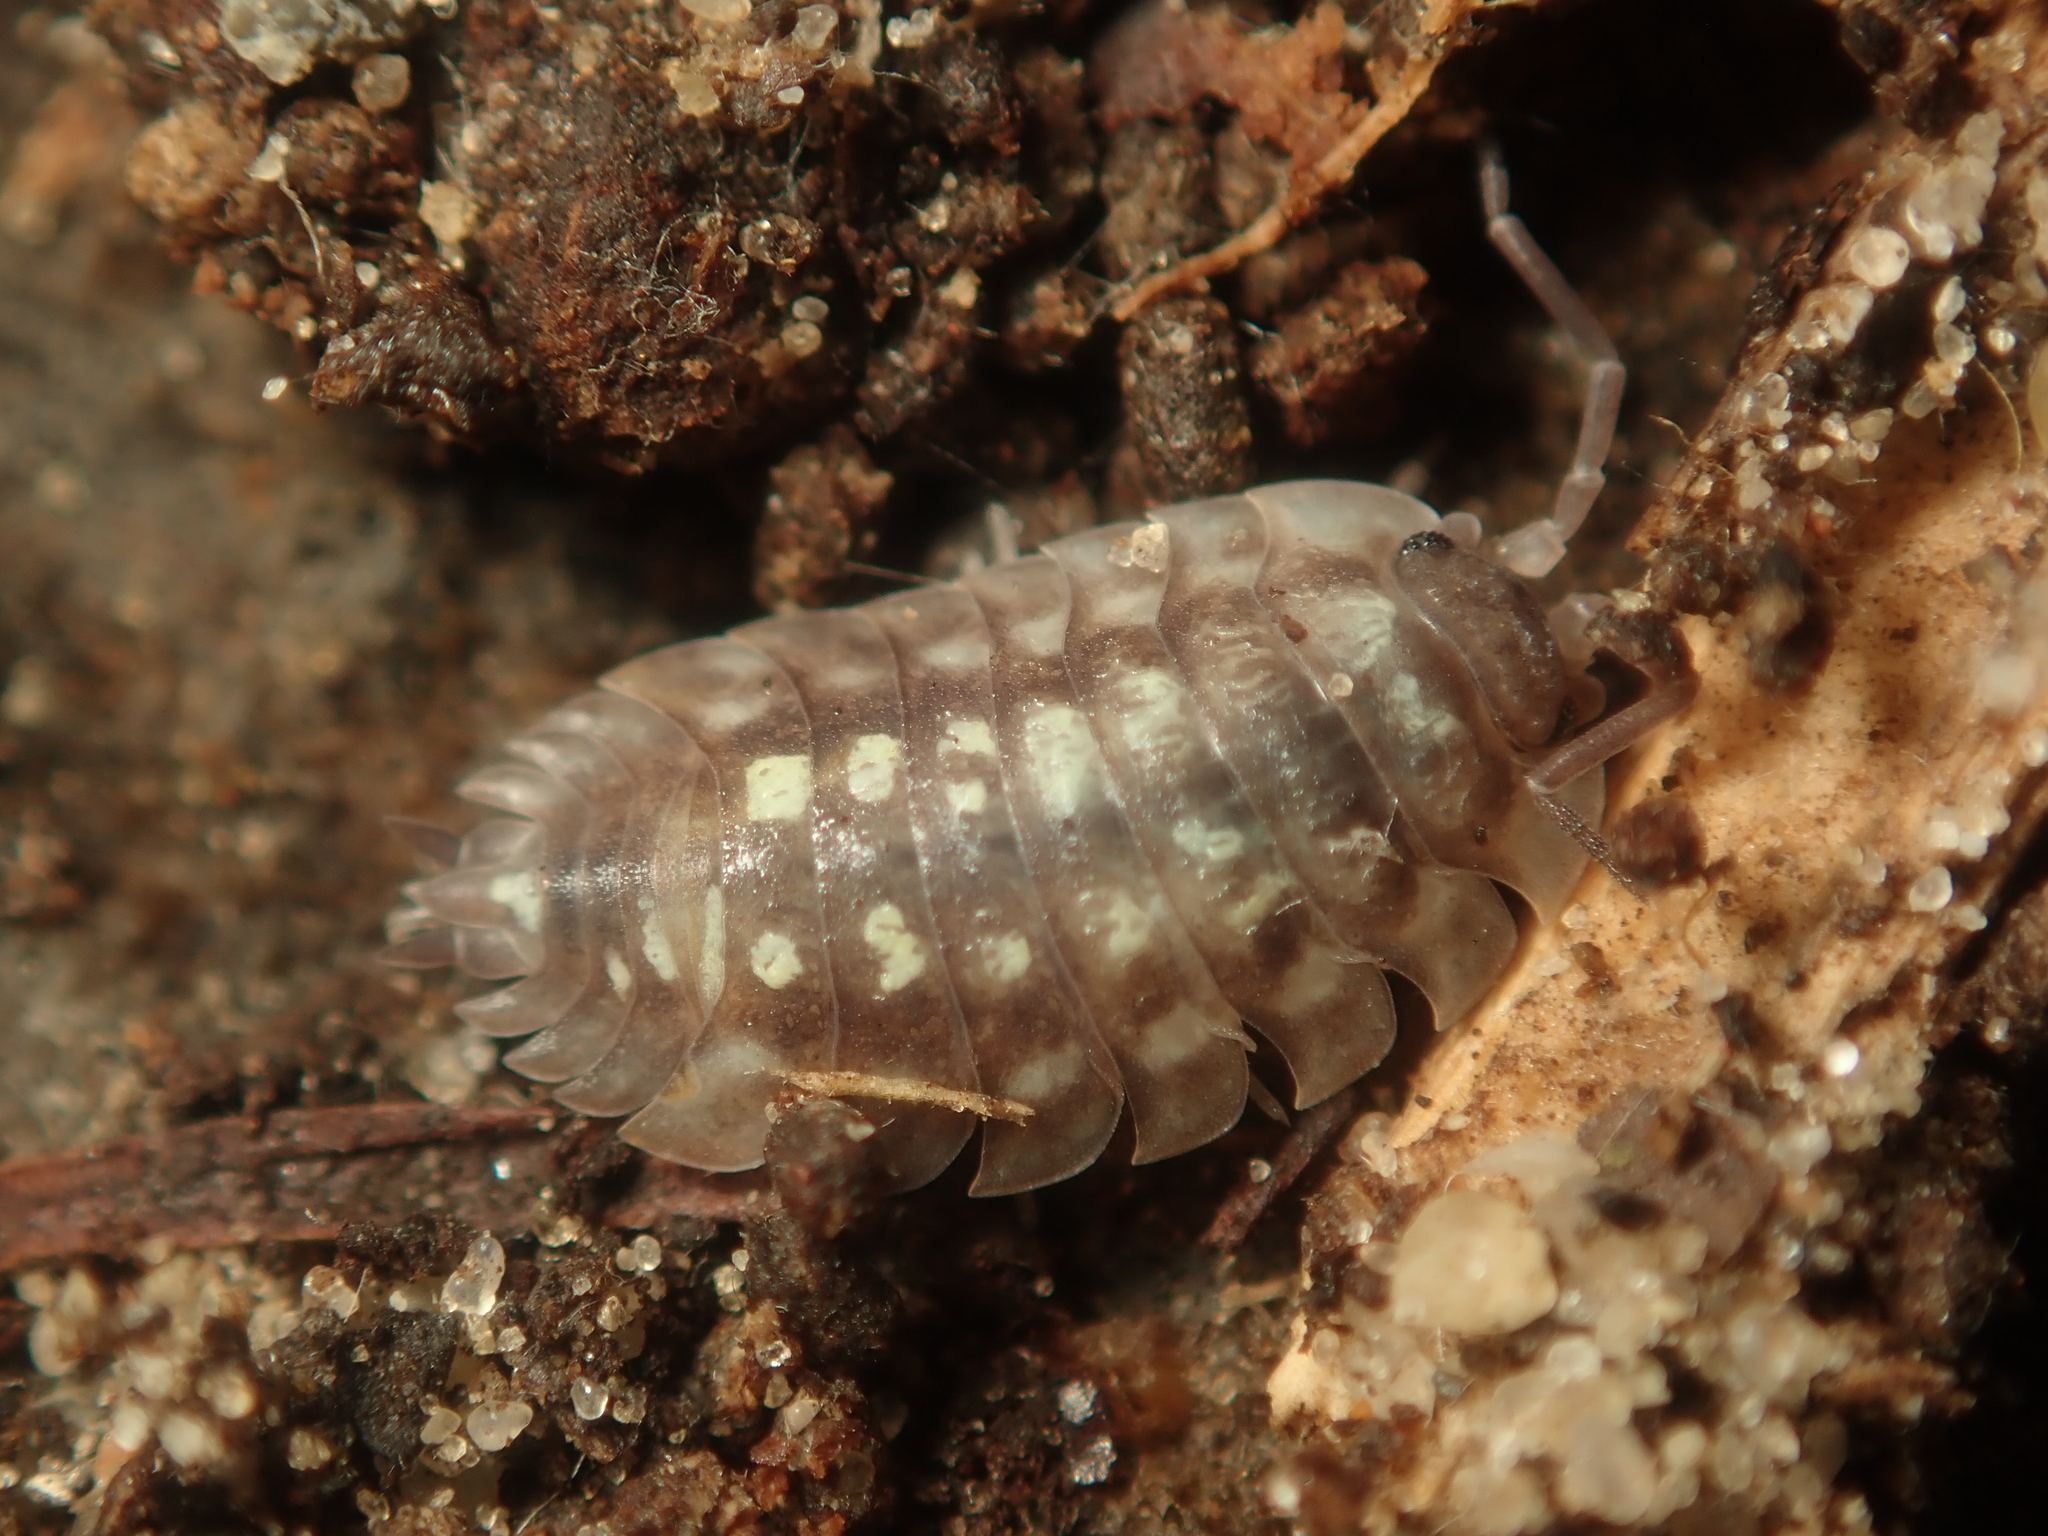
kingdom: Animalia
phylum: Arthropoda
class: Malacostraca
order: Isopoda
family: Oniscidae
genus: Oniscus
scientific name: Oniscus asellus
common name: Common shiny woodlouse
